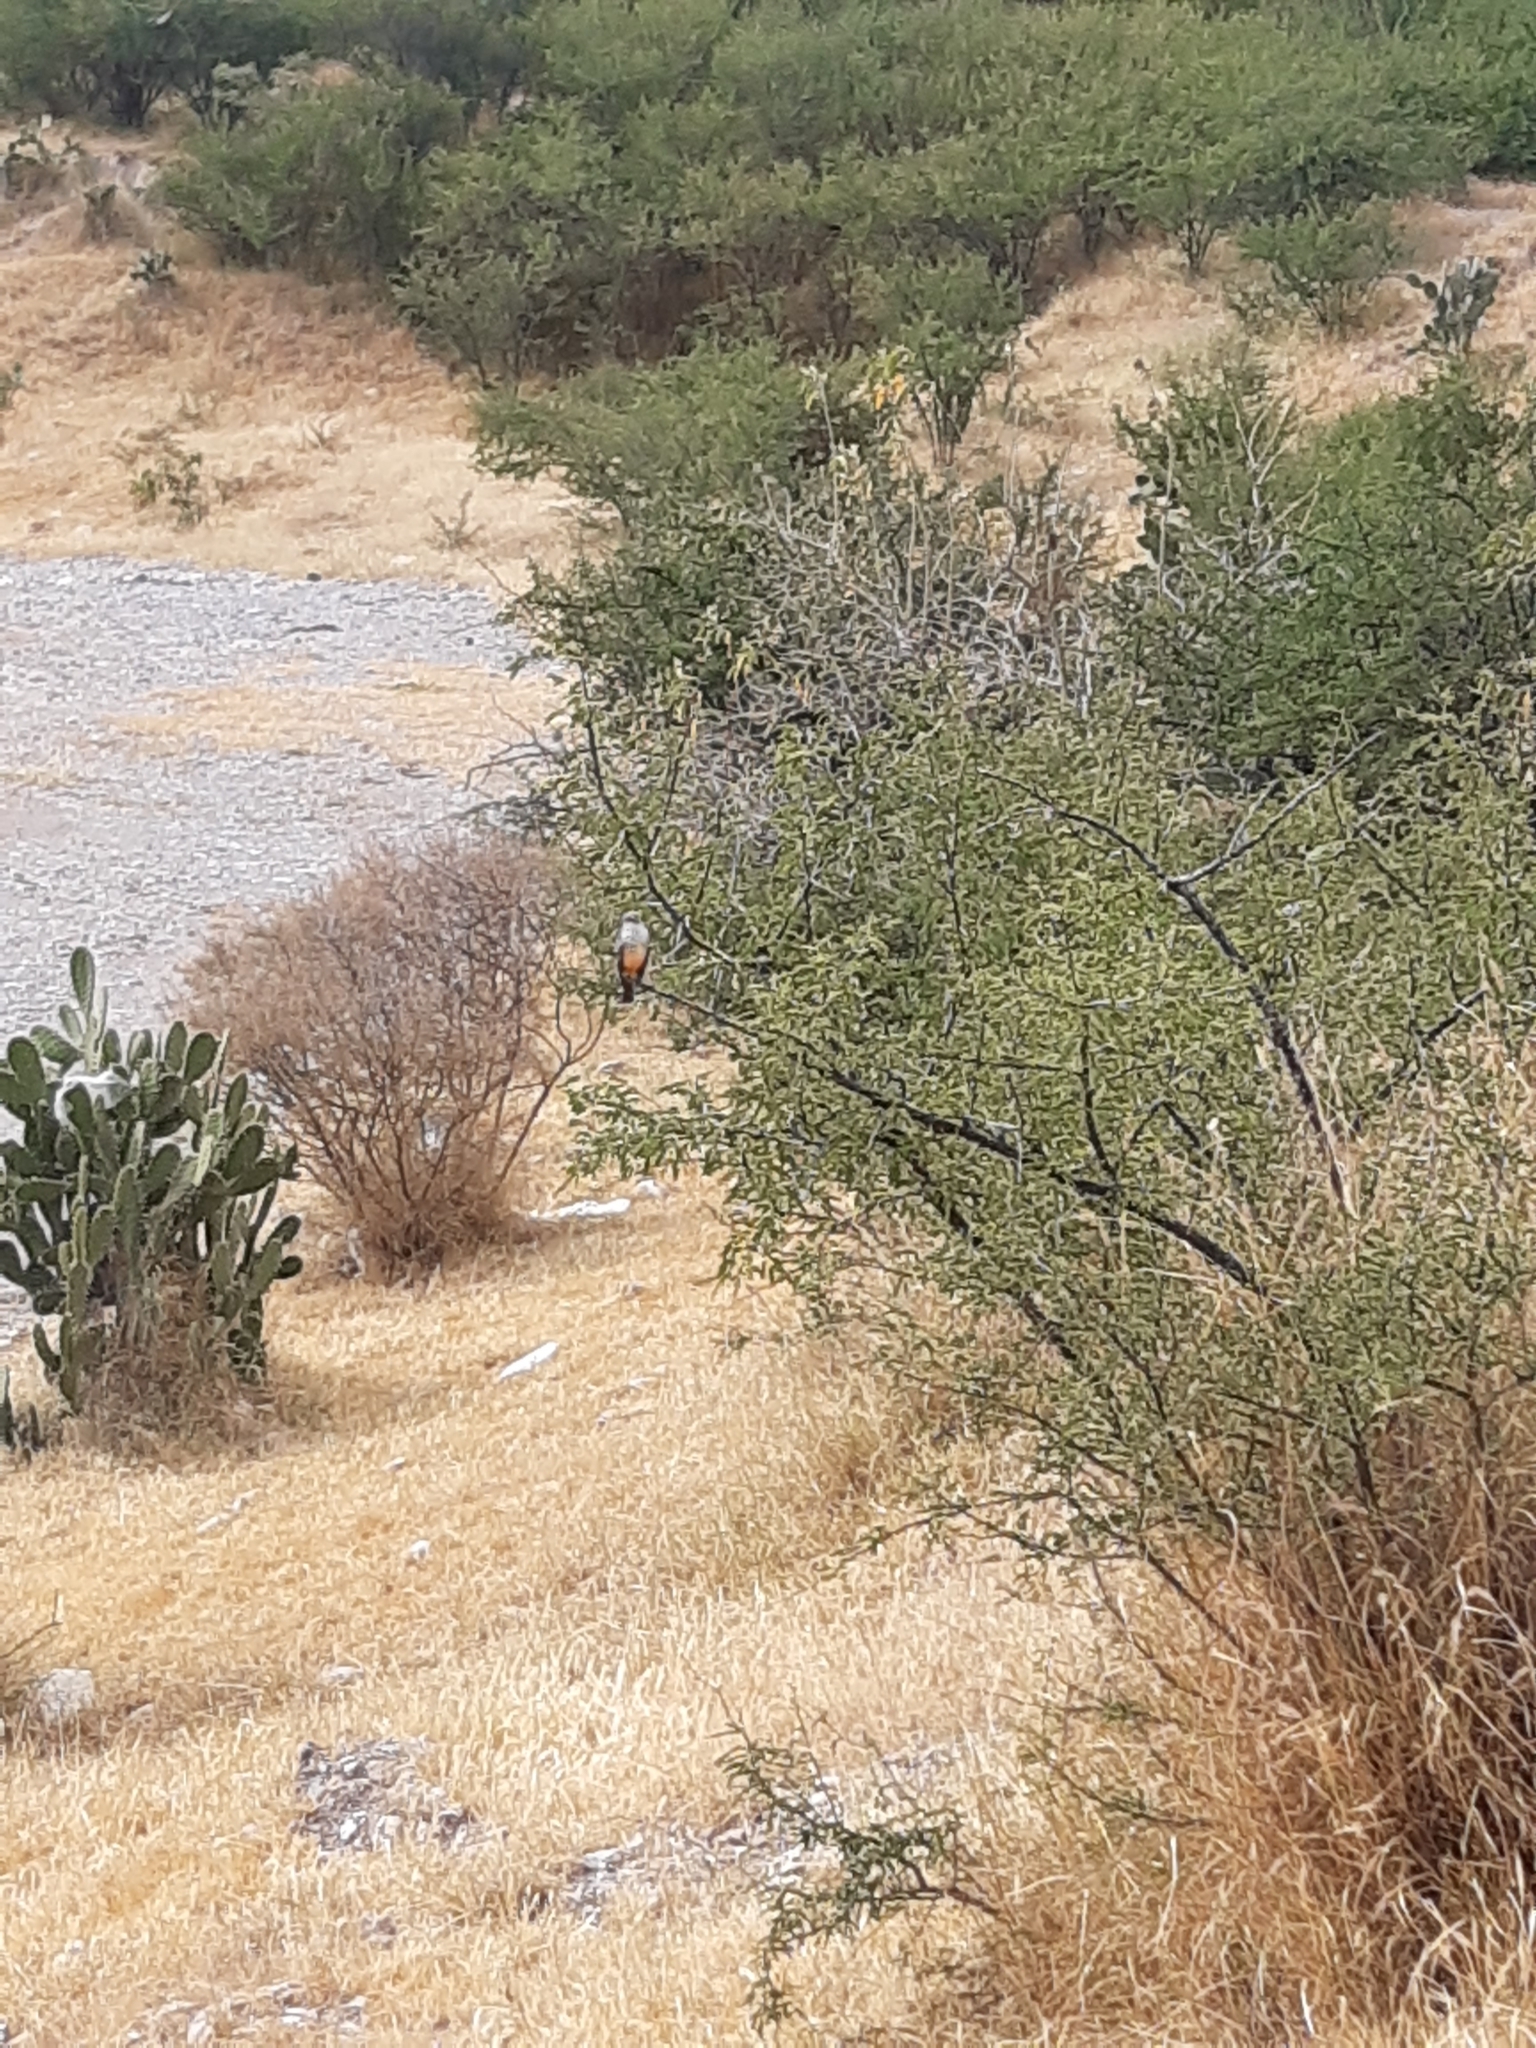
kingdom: Animalia
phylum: Chordata
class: Aves
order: Passeriformes
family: Tyrannidae
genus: Pyrocephalus
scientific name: Pyrocephalus rubinus
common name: Vermilion flycatcher
